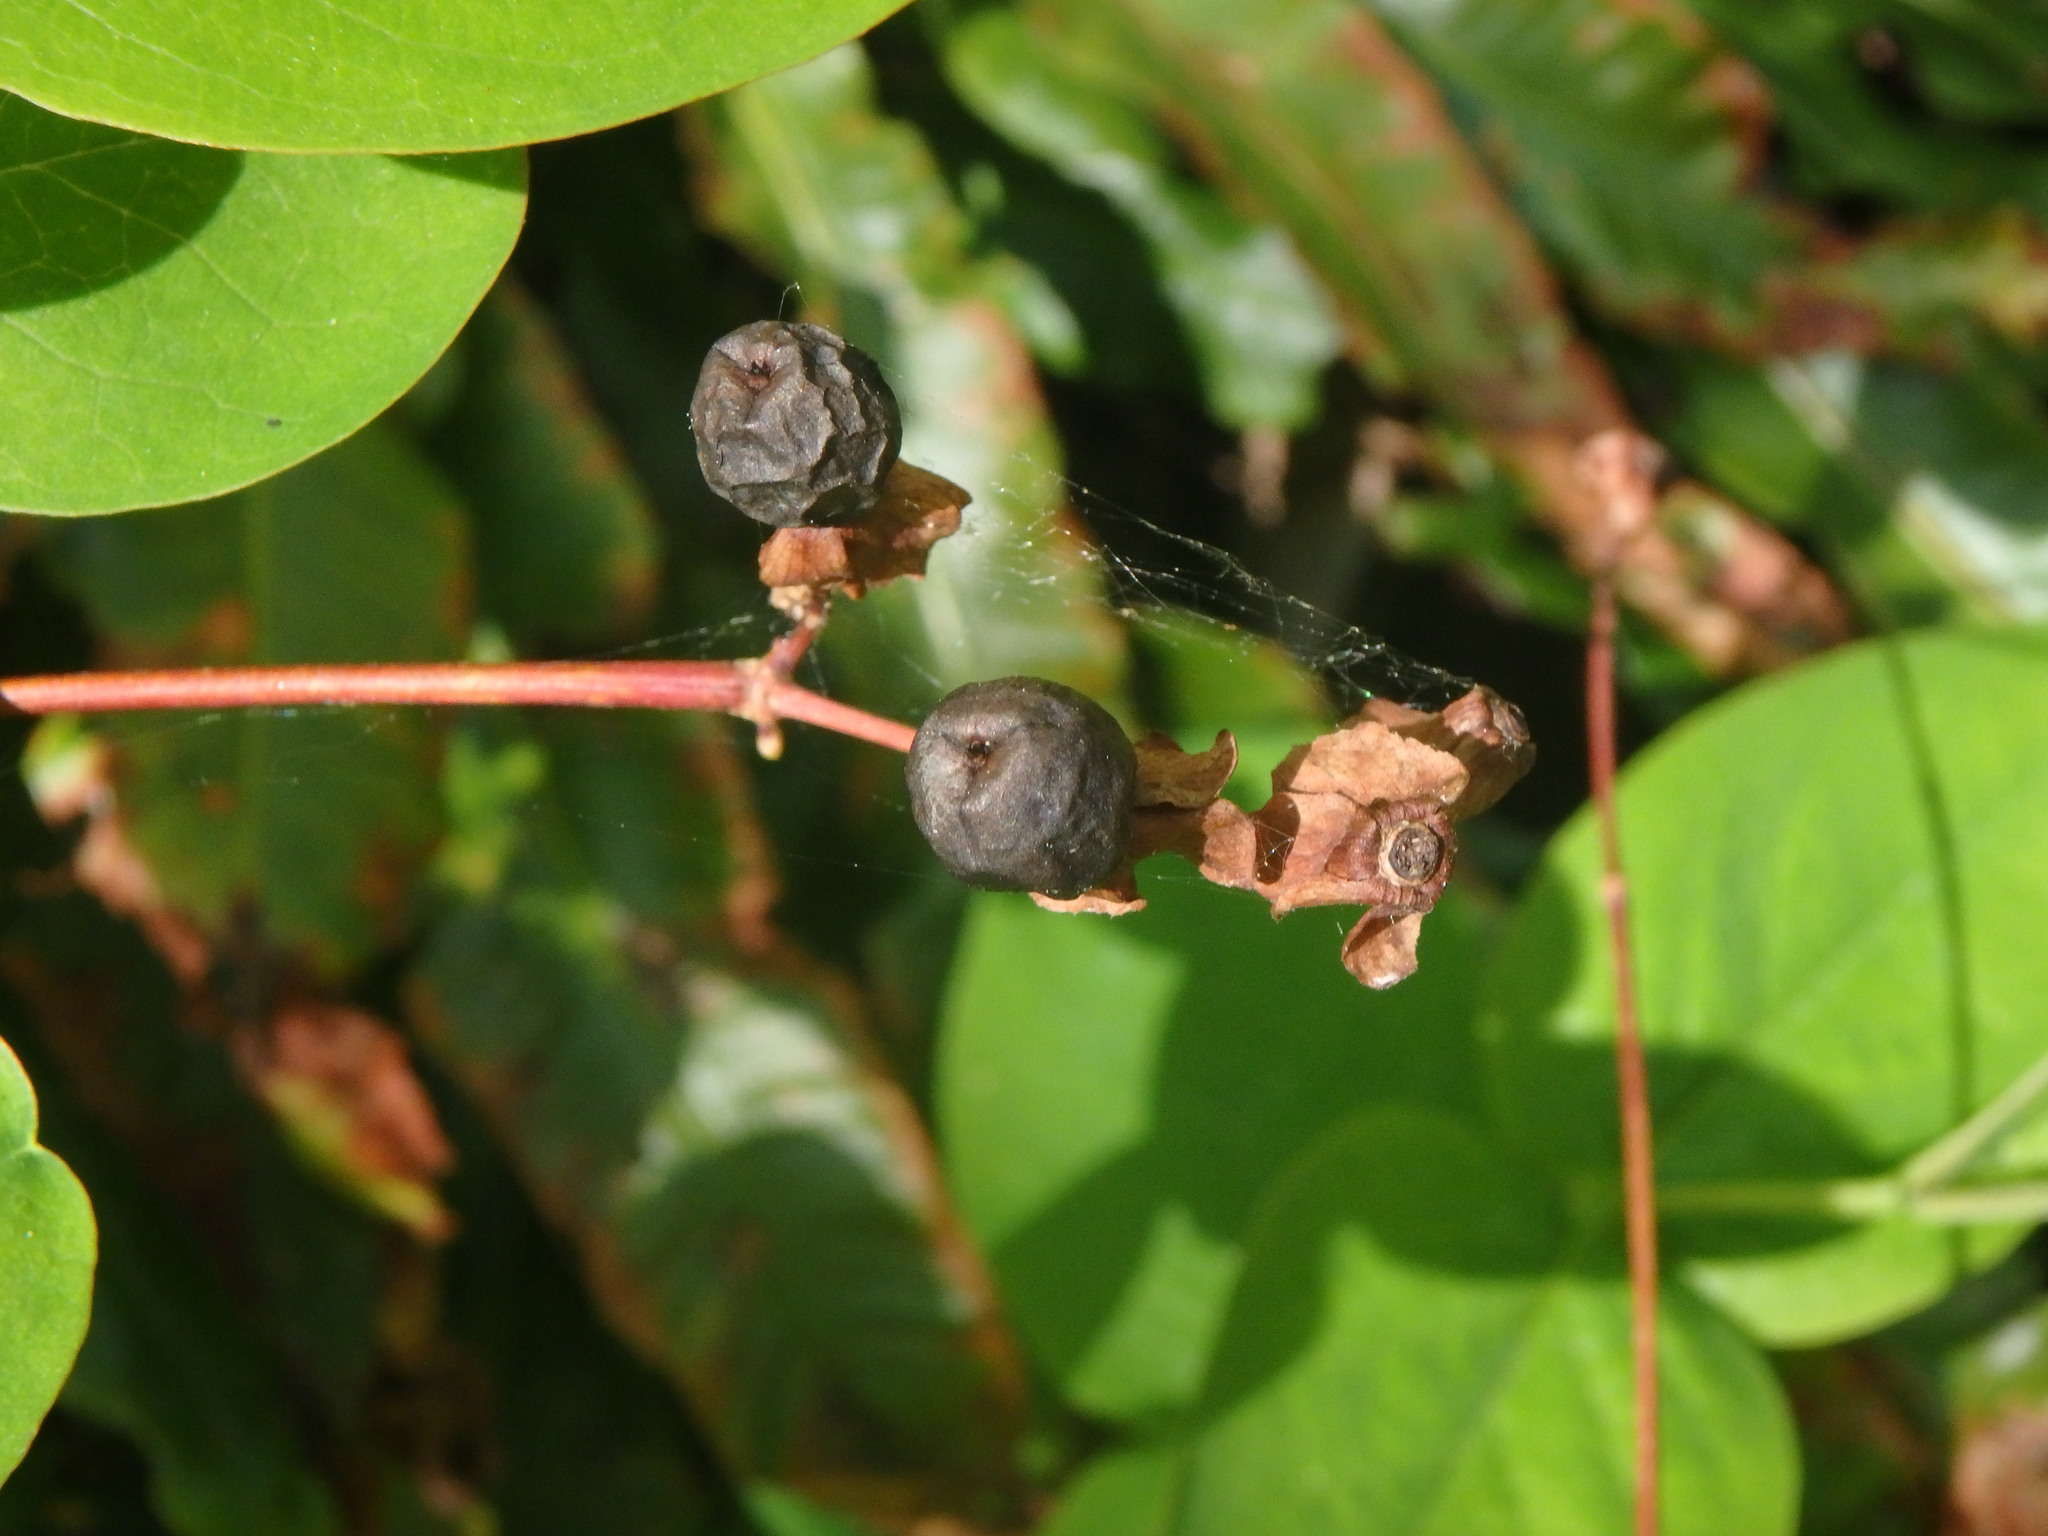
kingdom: Plantae
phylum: Tracheophyta
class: Magnoliopsida
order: Malpighiales
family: Hypericaceae
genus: Hypericum
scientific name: Hypericum androsaemum
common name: Sweet-amber
